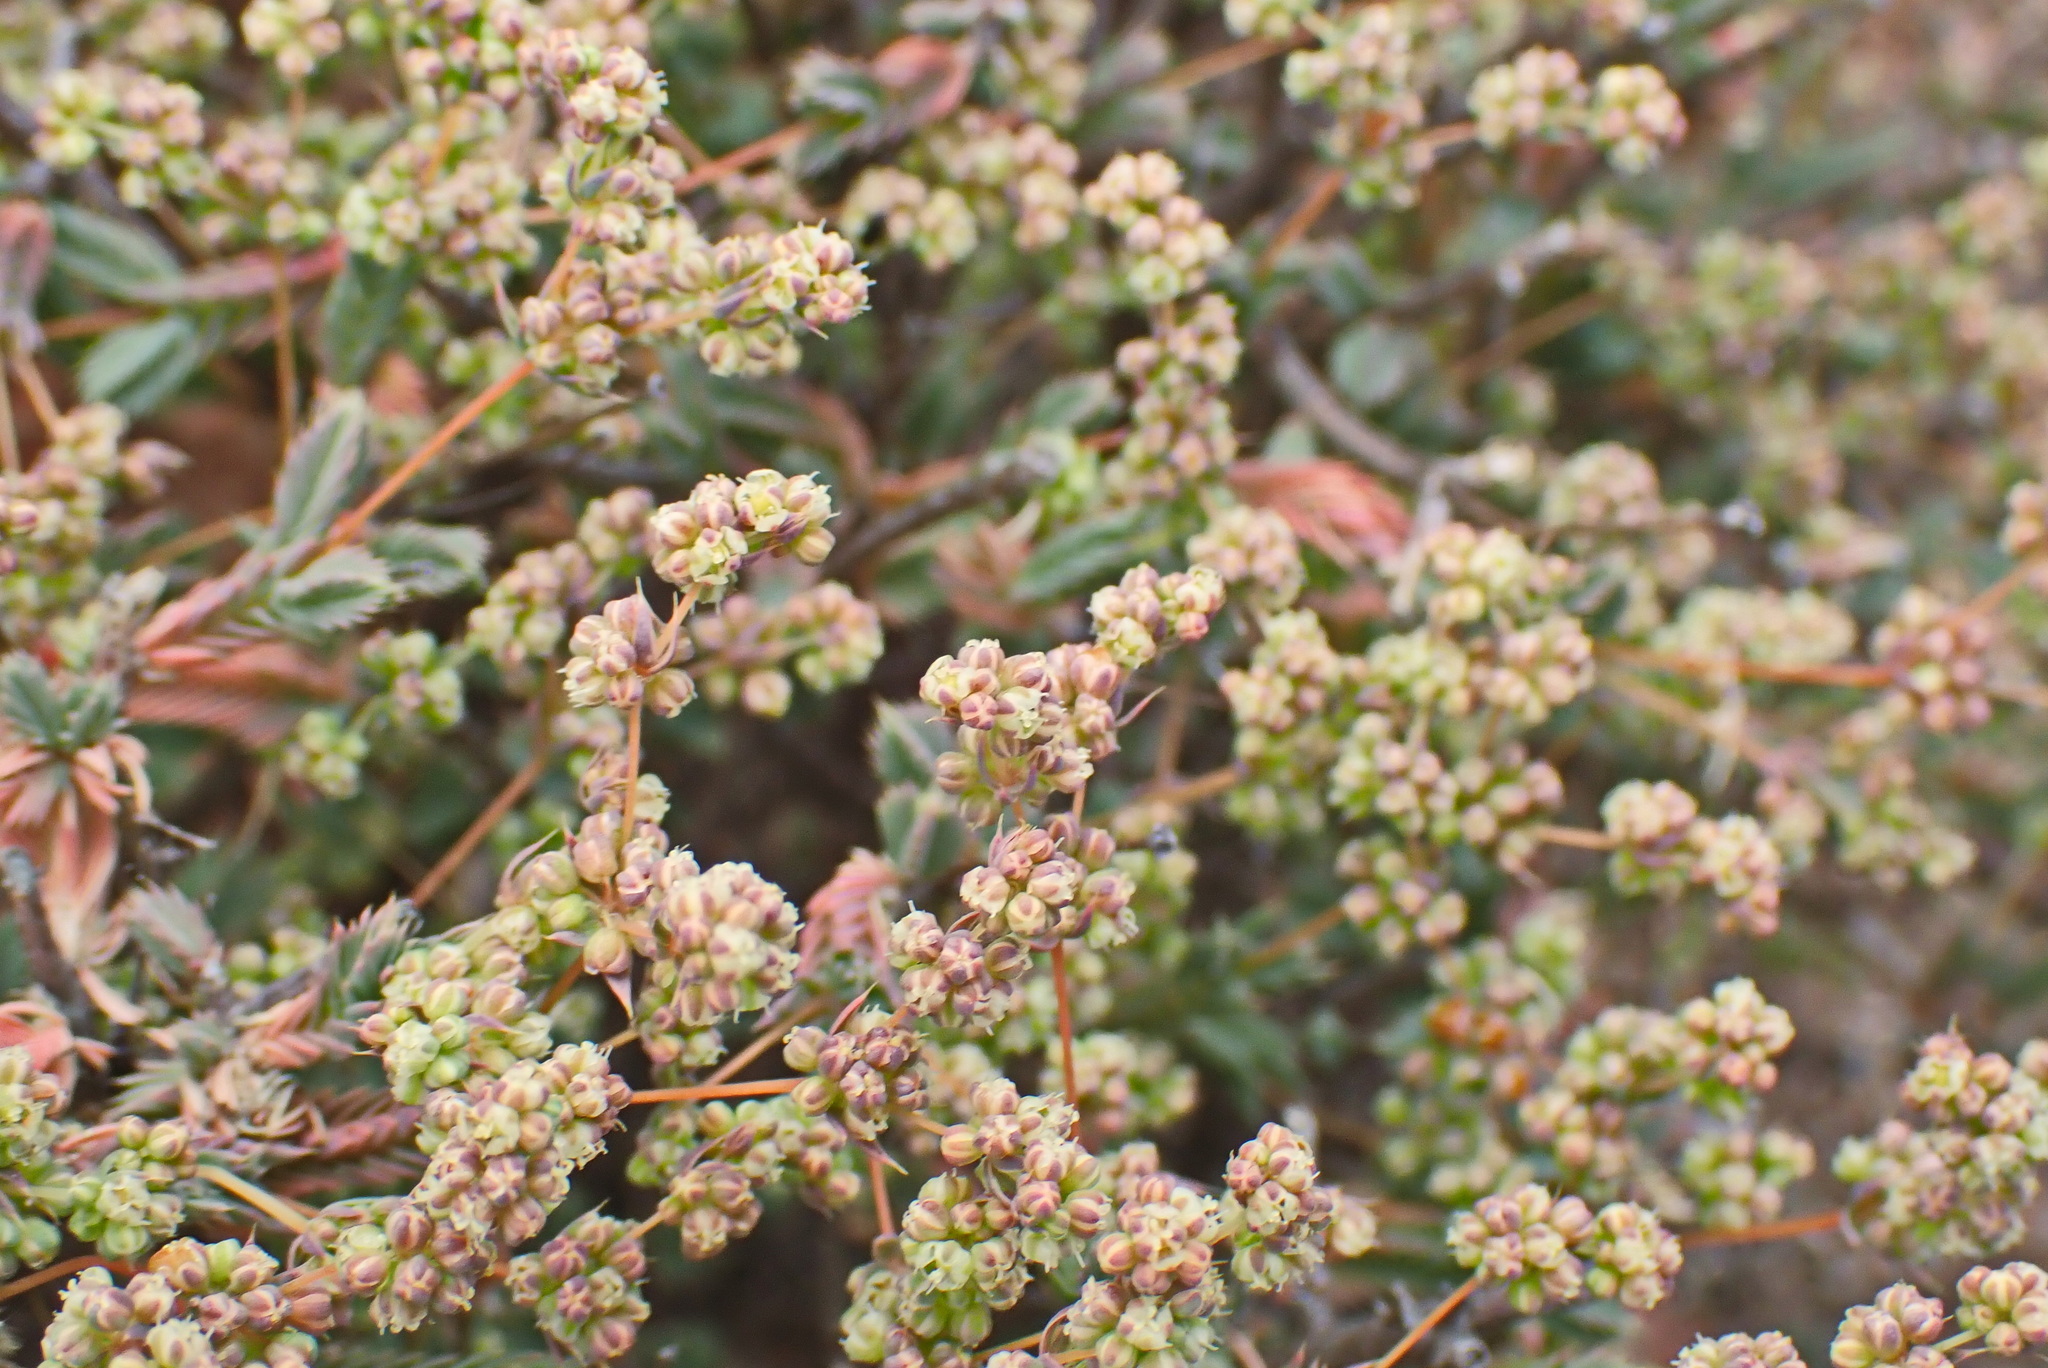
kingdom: Plantae
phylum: Tracheophyta
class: Magnoliopsida
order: Caryophyllales
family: Molluginaceae
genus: Psammotropha
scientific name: Psammotropha quadrangularis
